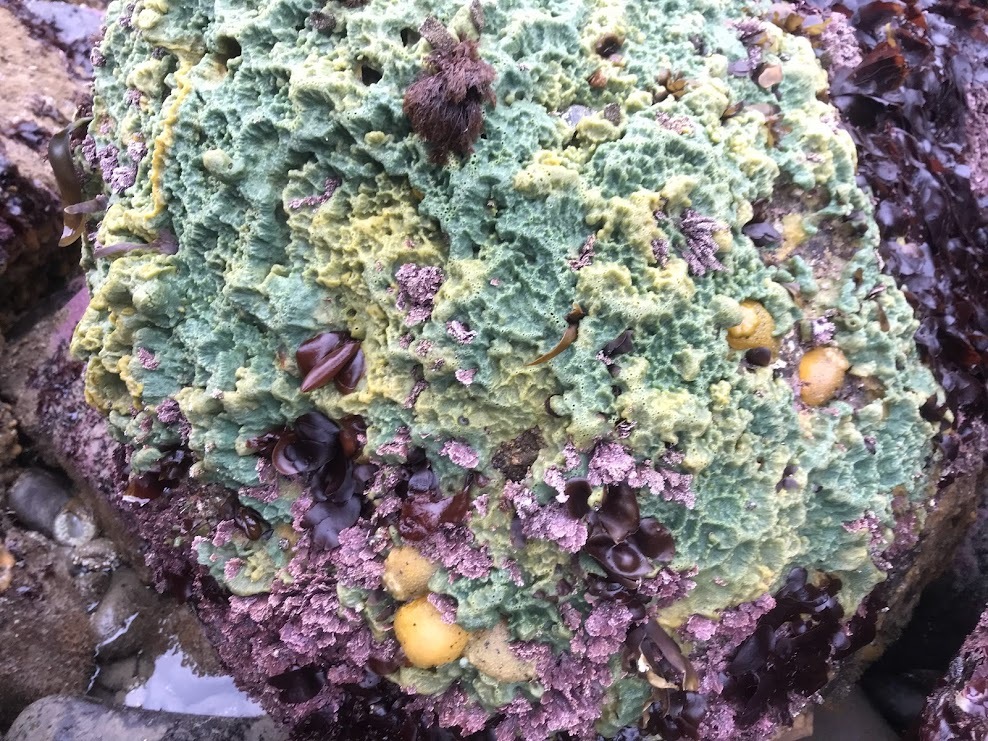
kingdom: Animalia
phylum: Mollusca
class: Gastropoda
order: Nudibranchia
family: Dorididae
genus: Doris
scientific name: Doris montereyensis
